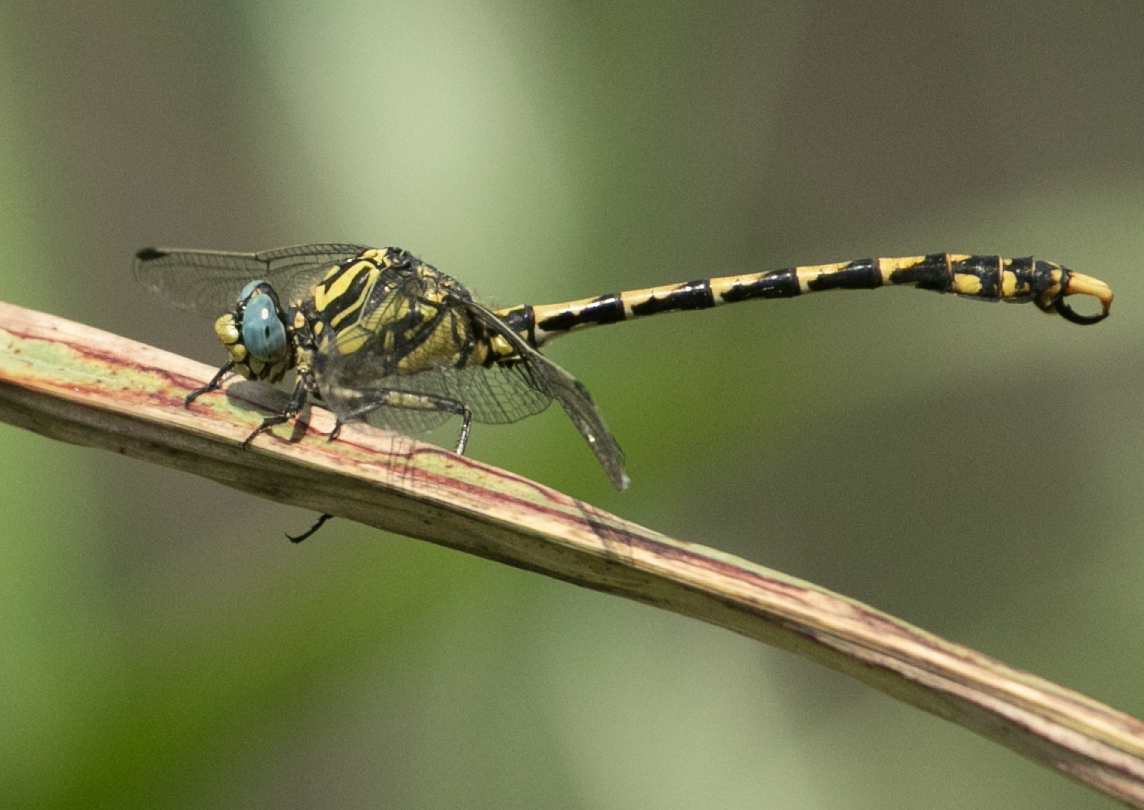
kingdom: Animalia
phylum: Arthropoda
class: Insecta
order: Odonata
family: Gomphidae
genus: Onychogomphus
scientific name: Onychogomphus uncatus
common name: Large pincertail
